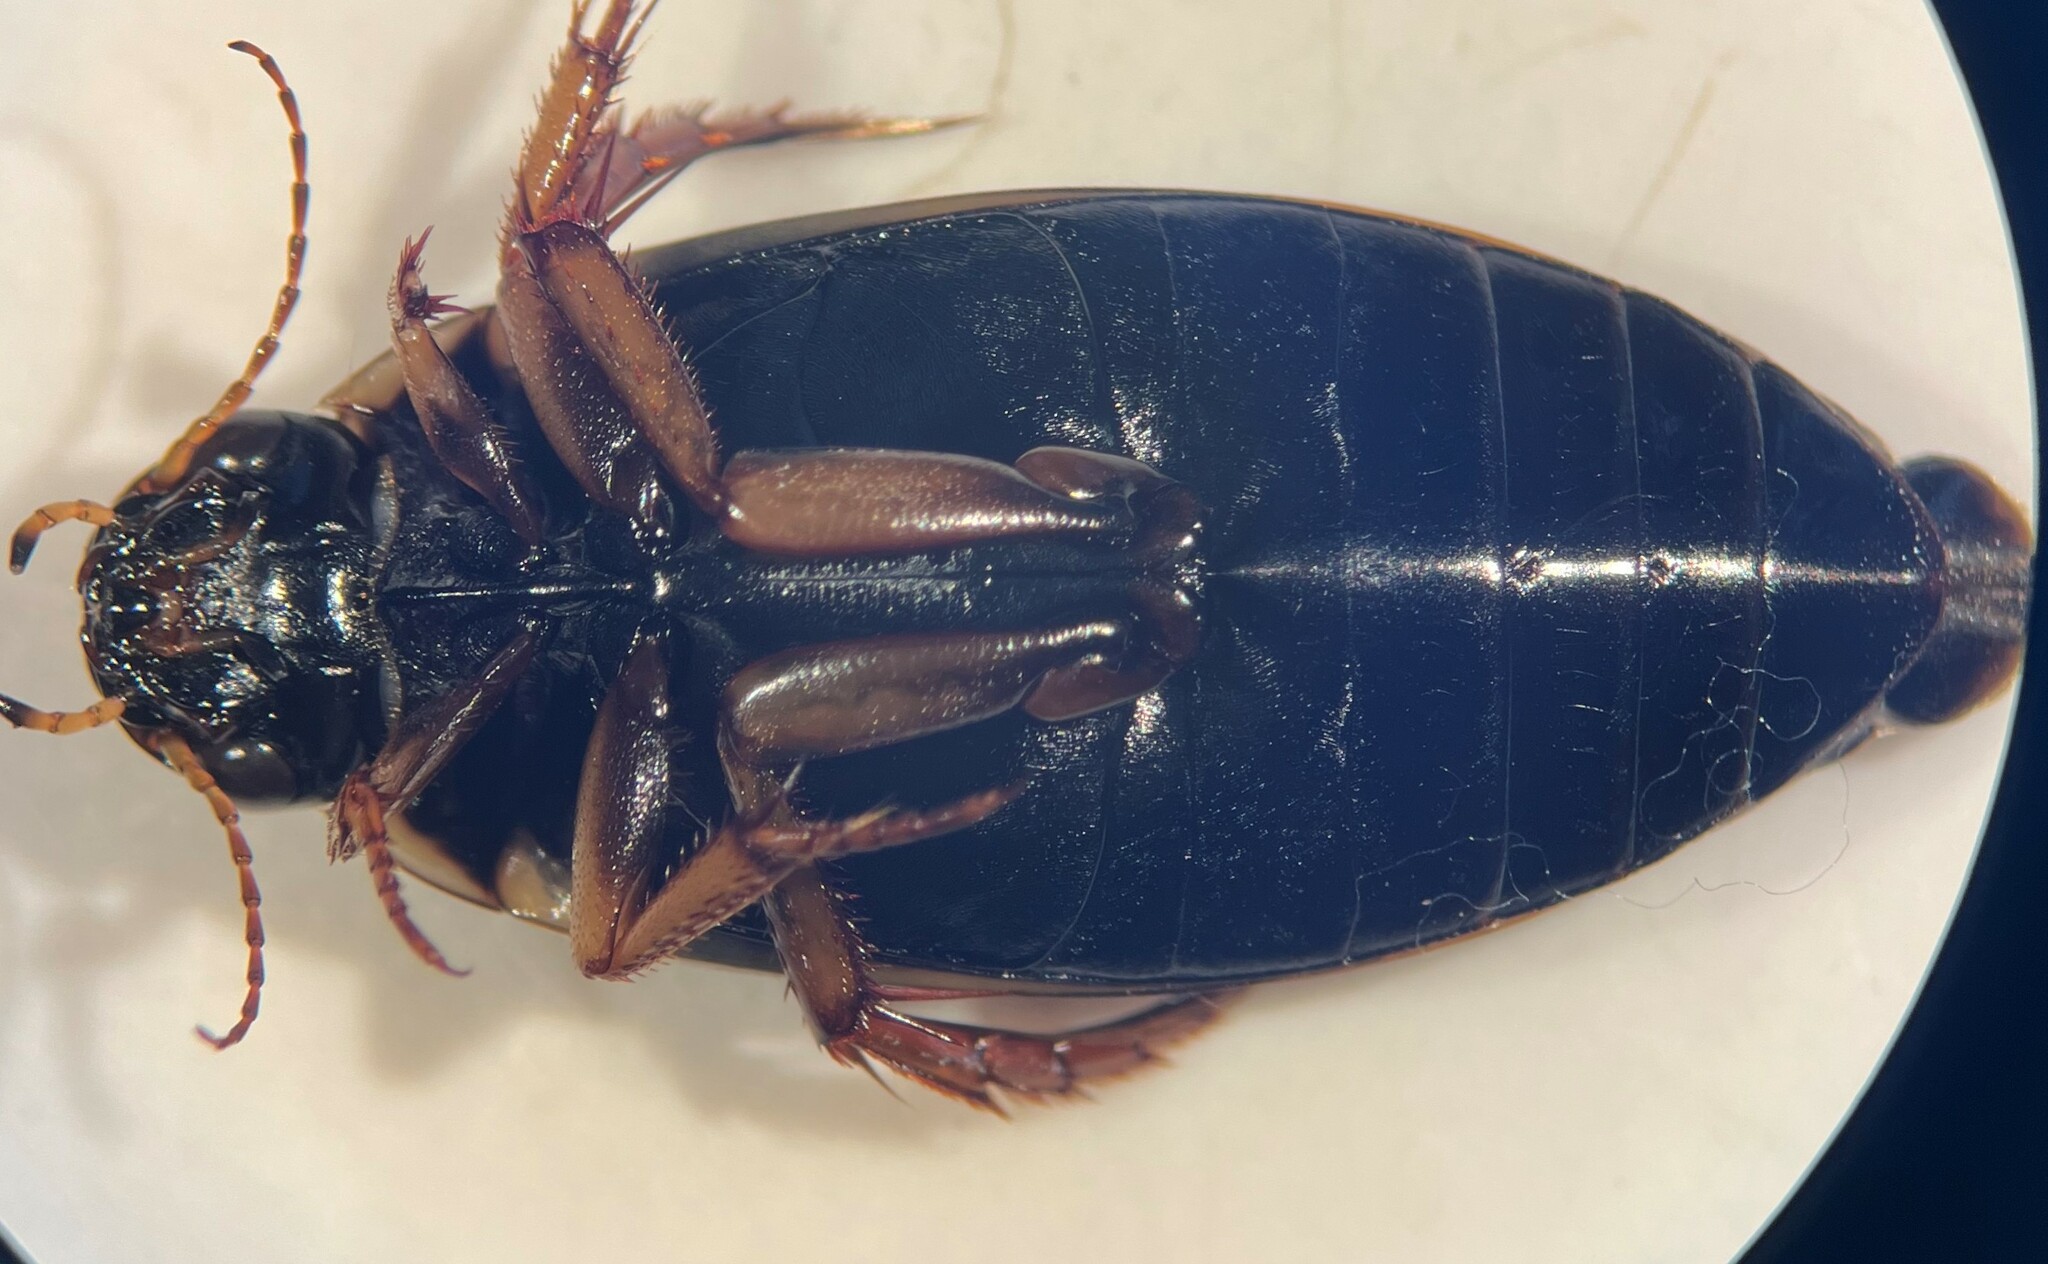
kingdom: Animalia
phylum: Arthropoda
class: Insecta
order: Coleoptera
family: Dytiscidae
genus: Colymbetes
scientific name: Colymbetes incognitus
